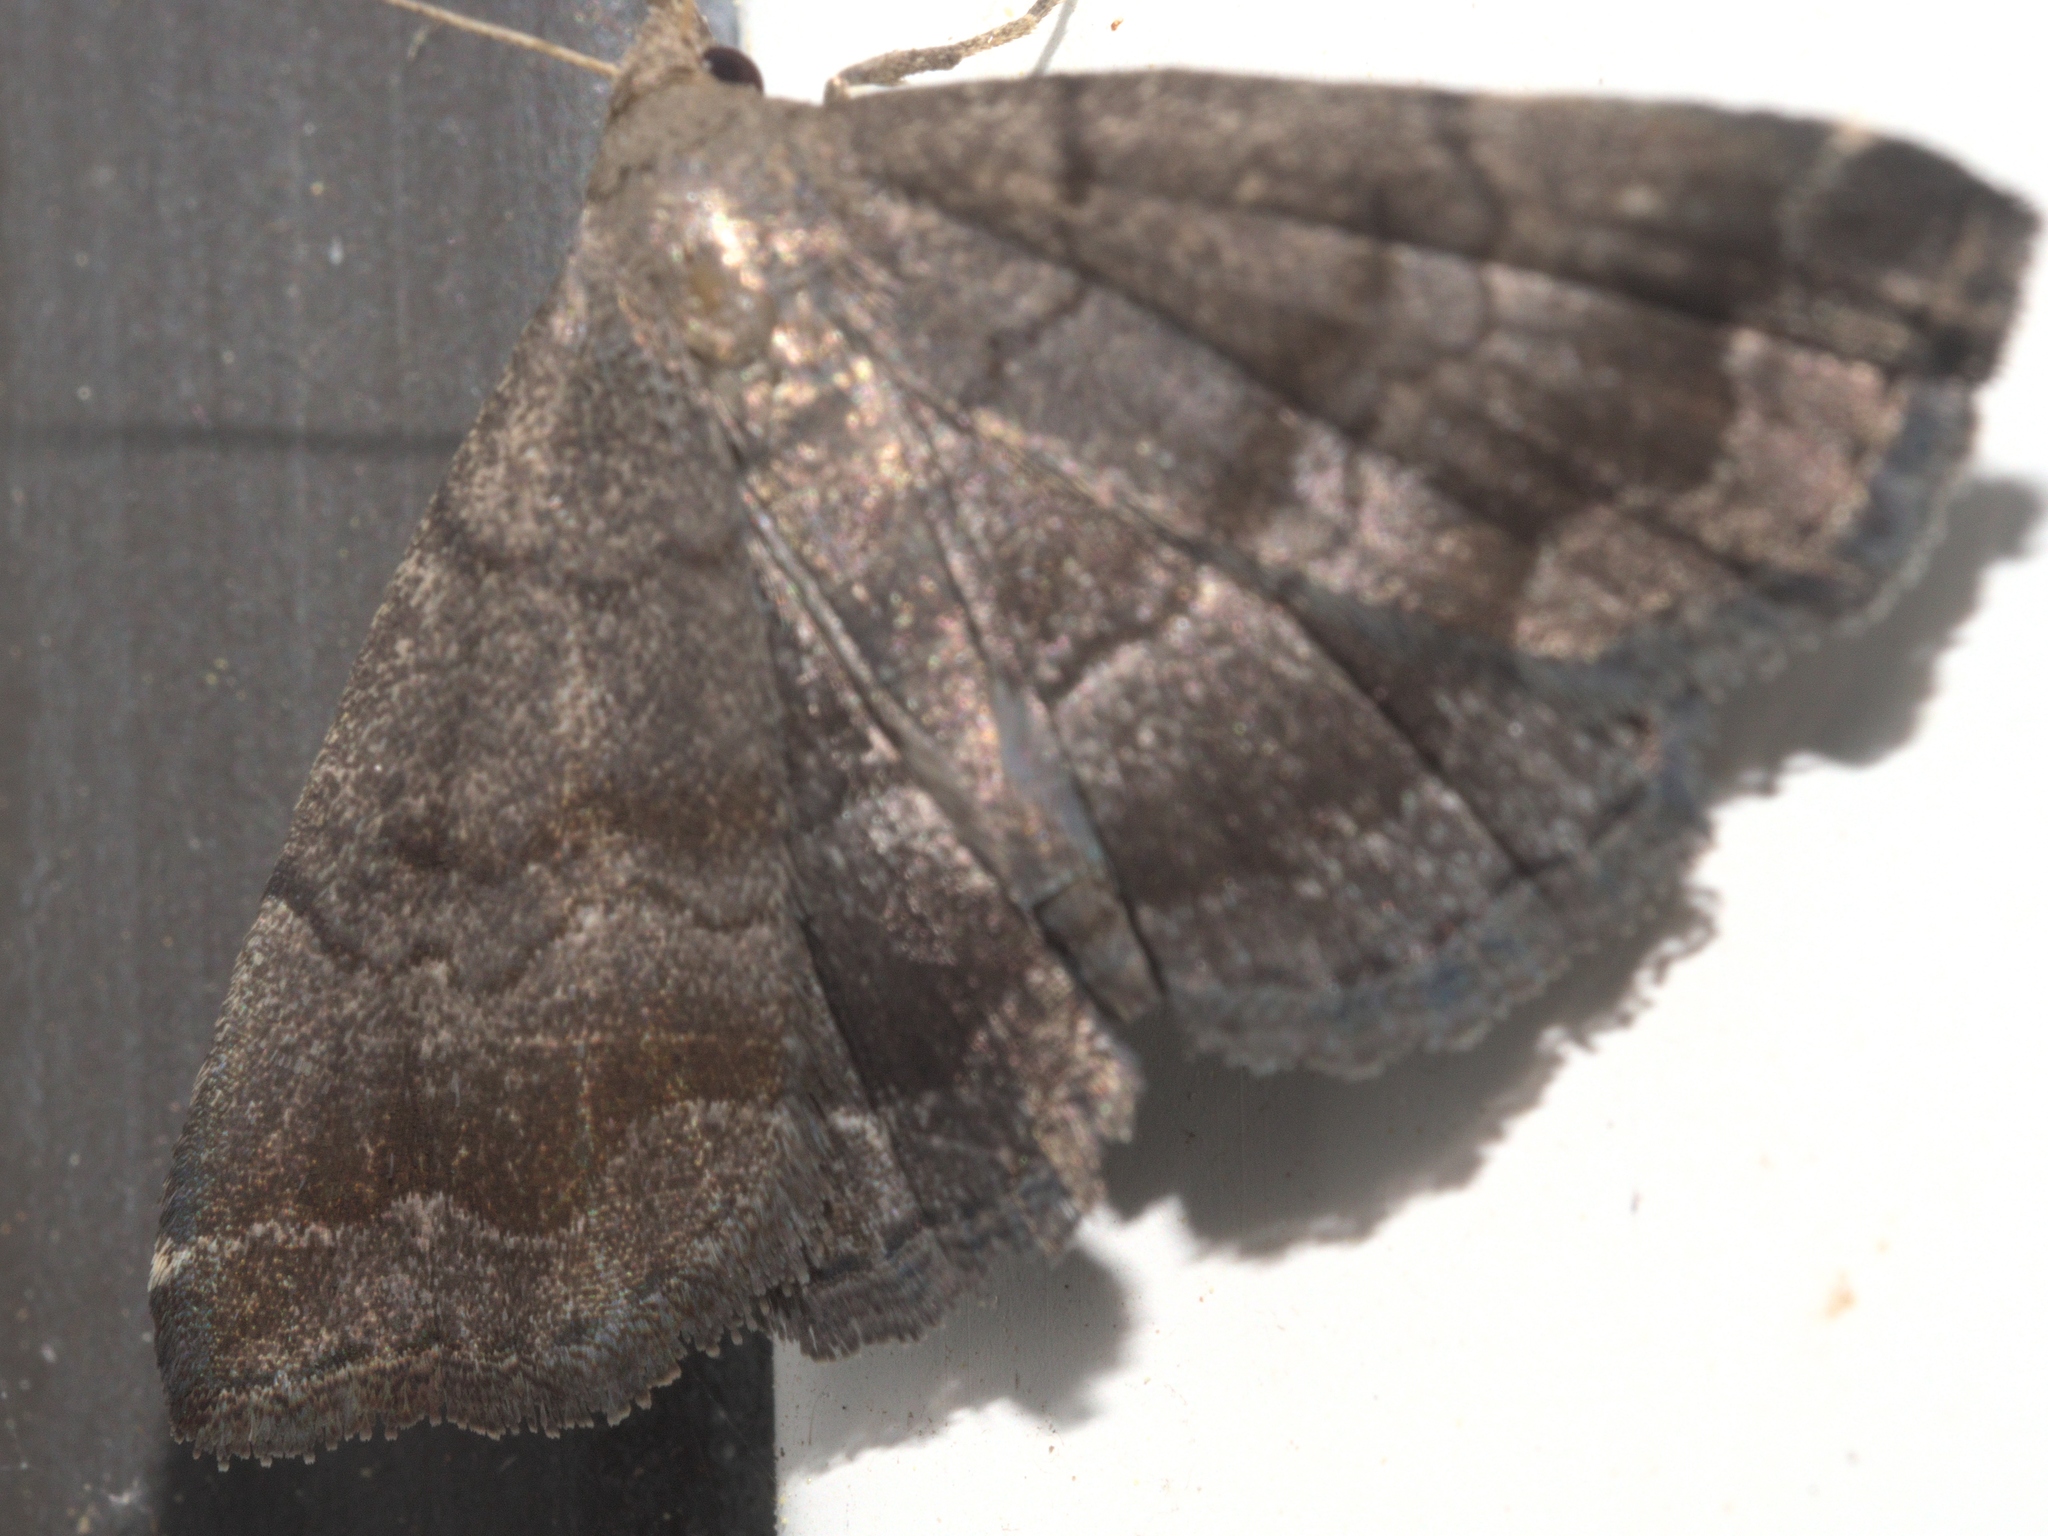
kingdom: Animalia
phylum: Arthropoda
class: Insecta
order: Lepidoptera
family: Erebidae
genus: Phalaenostola
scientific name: Phalaenostola larentioides
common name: Black-banded owlet
